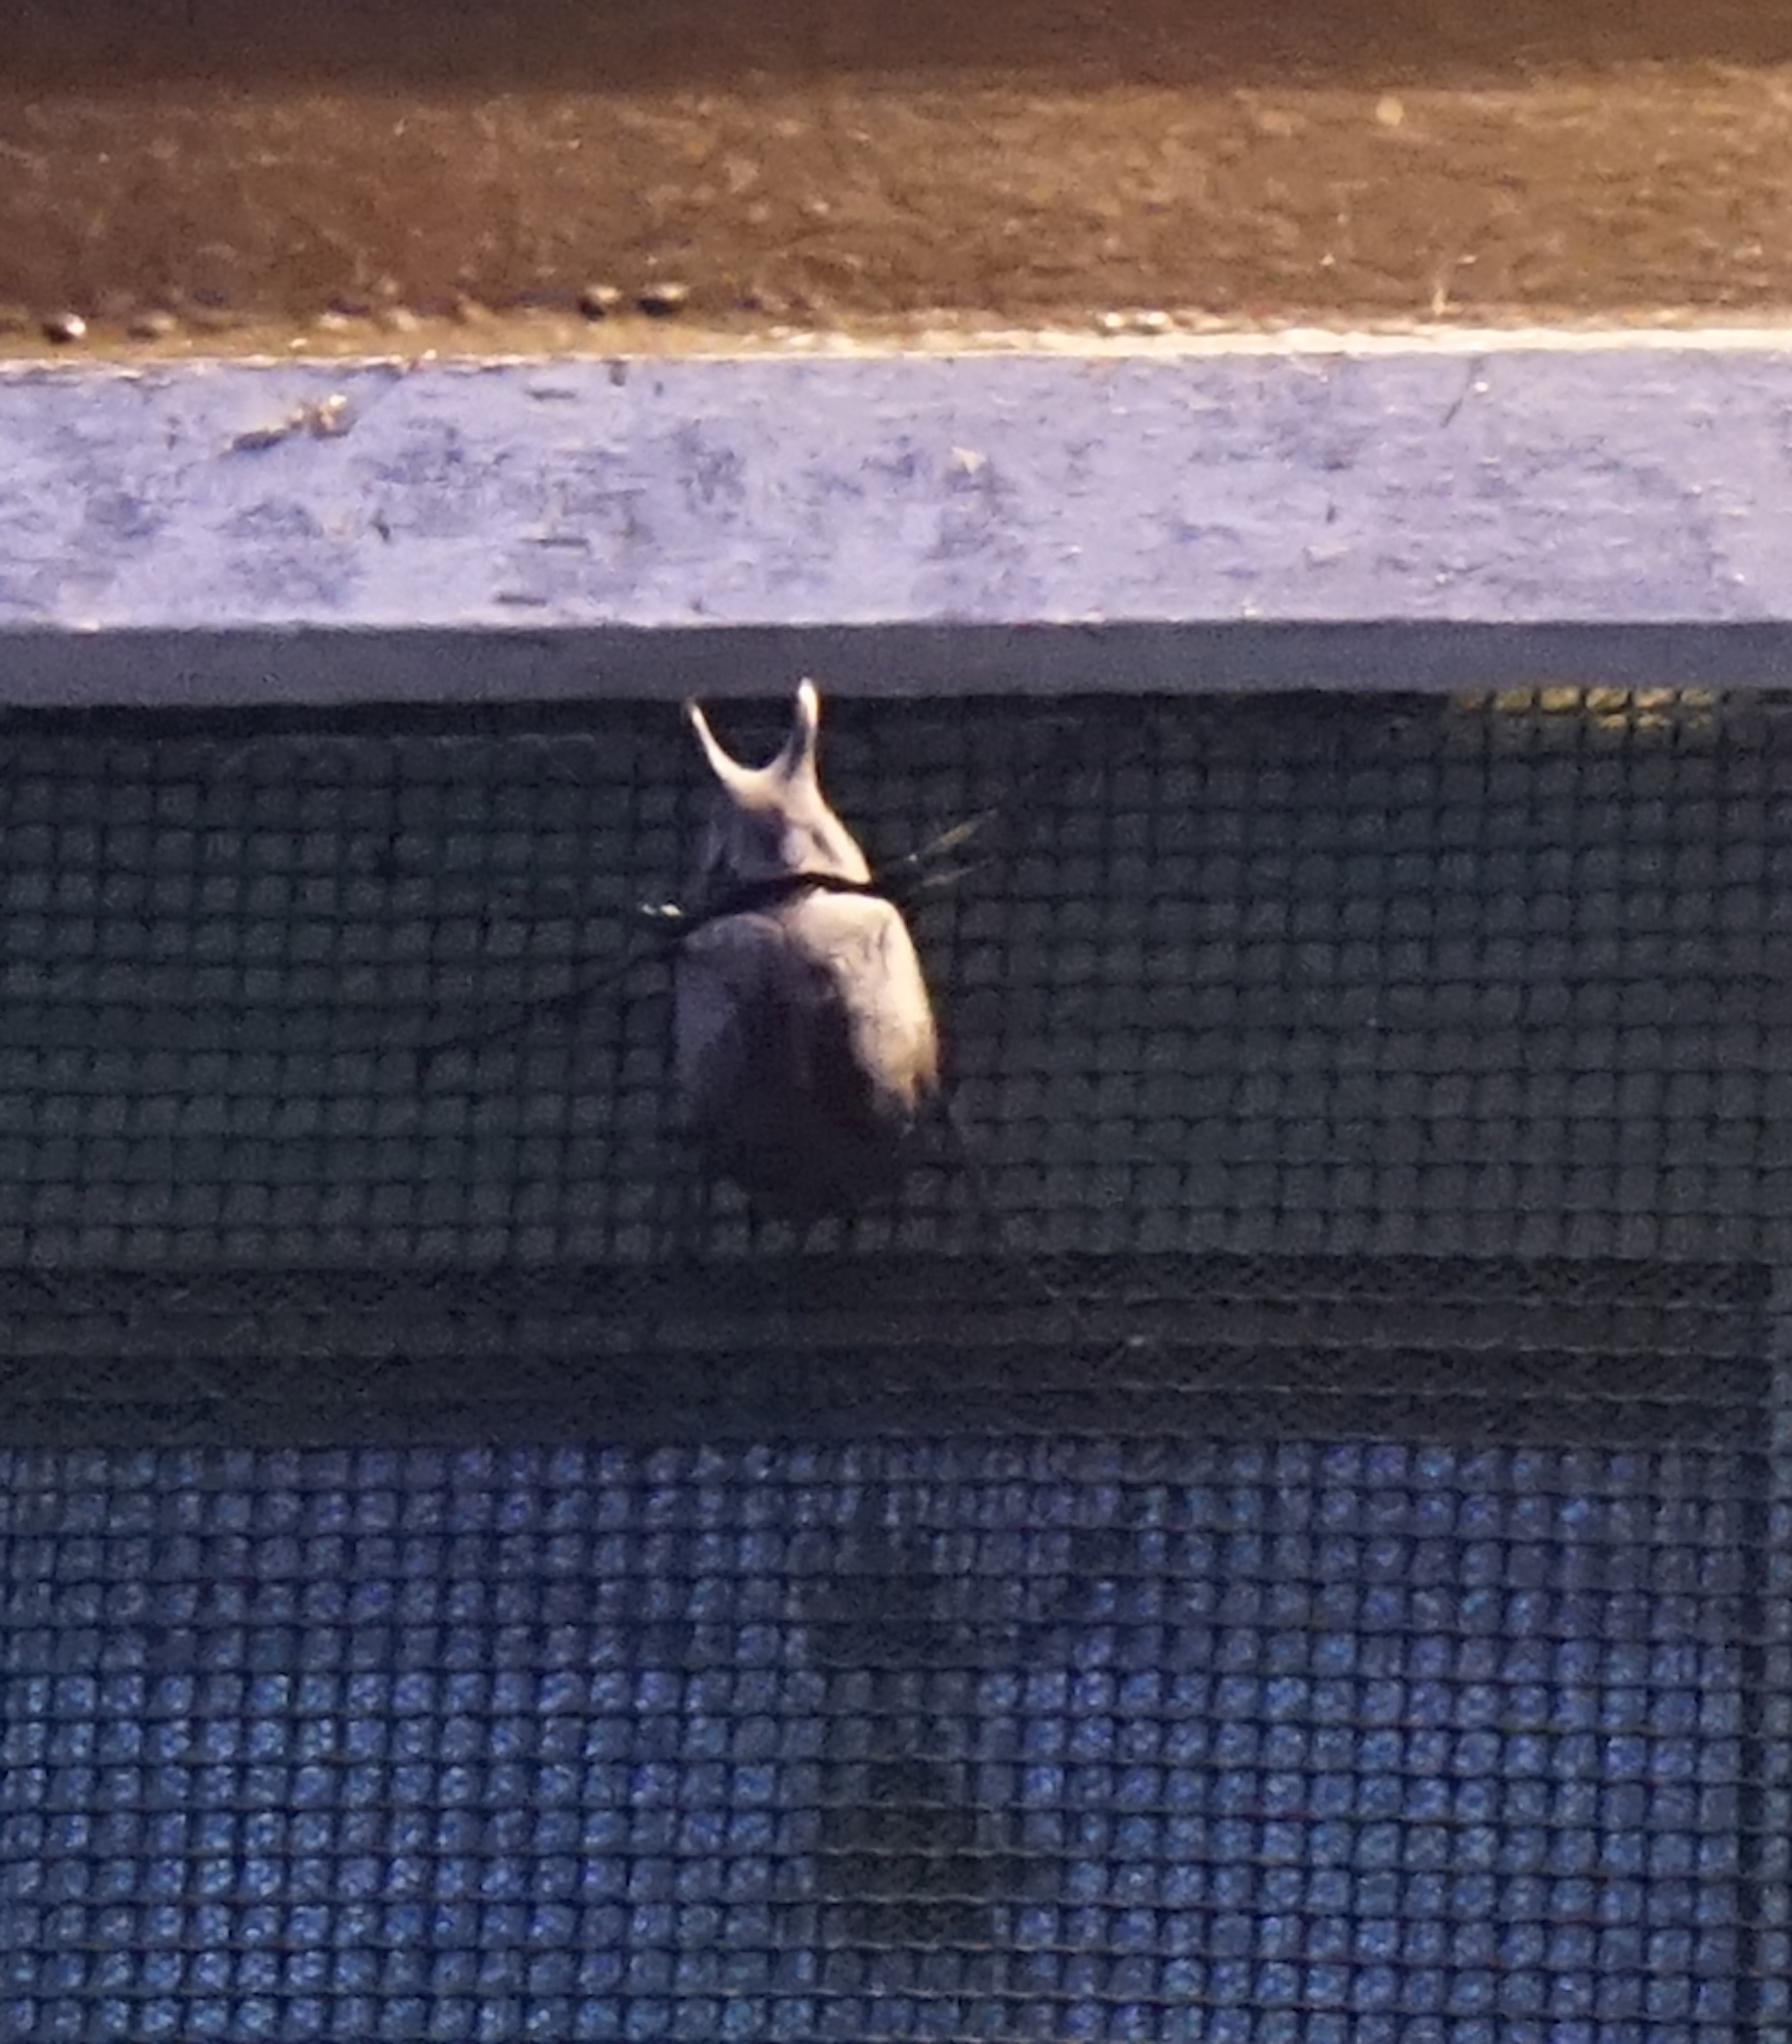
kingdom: Animalia
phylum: Arthropoda
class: Insecta
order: Coleoptera
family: Scarabaeidae
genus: Chalcosoma
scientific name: Chalcosoma moellenkampi
